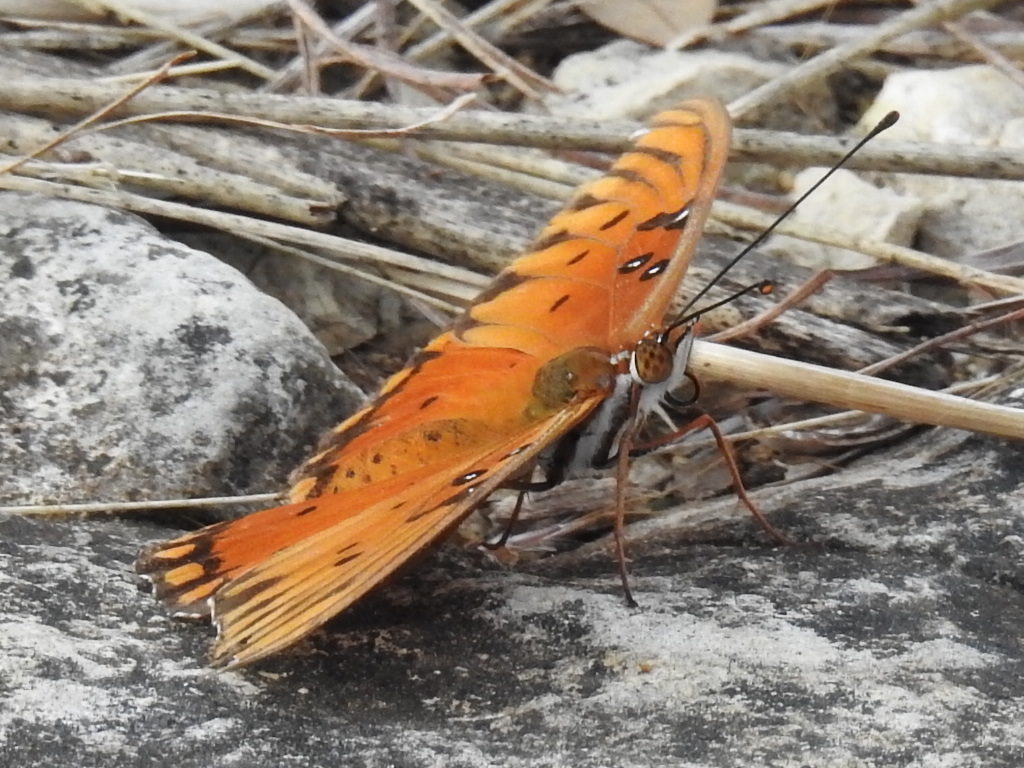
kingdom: Animalia
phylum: Arthropoda
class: Insecta
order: Lepidoptera
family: Nymphalidae
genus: Dione
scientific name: Dione vanillae
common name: Gulf fritillary
